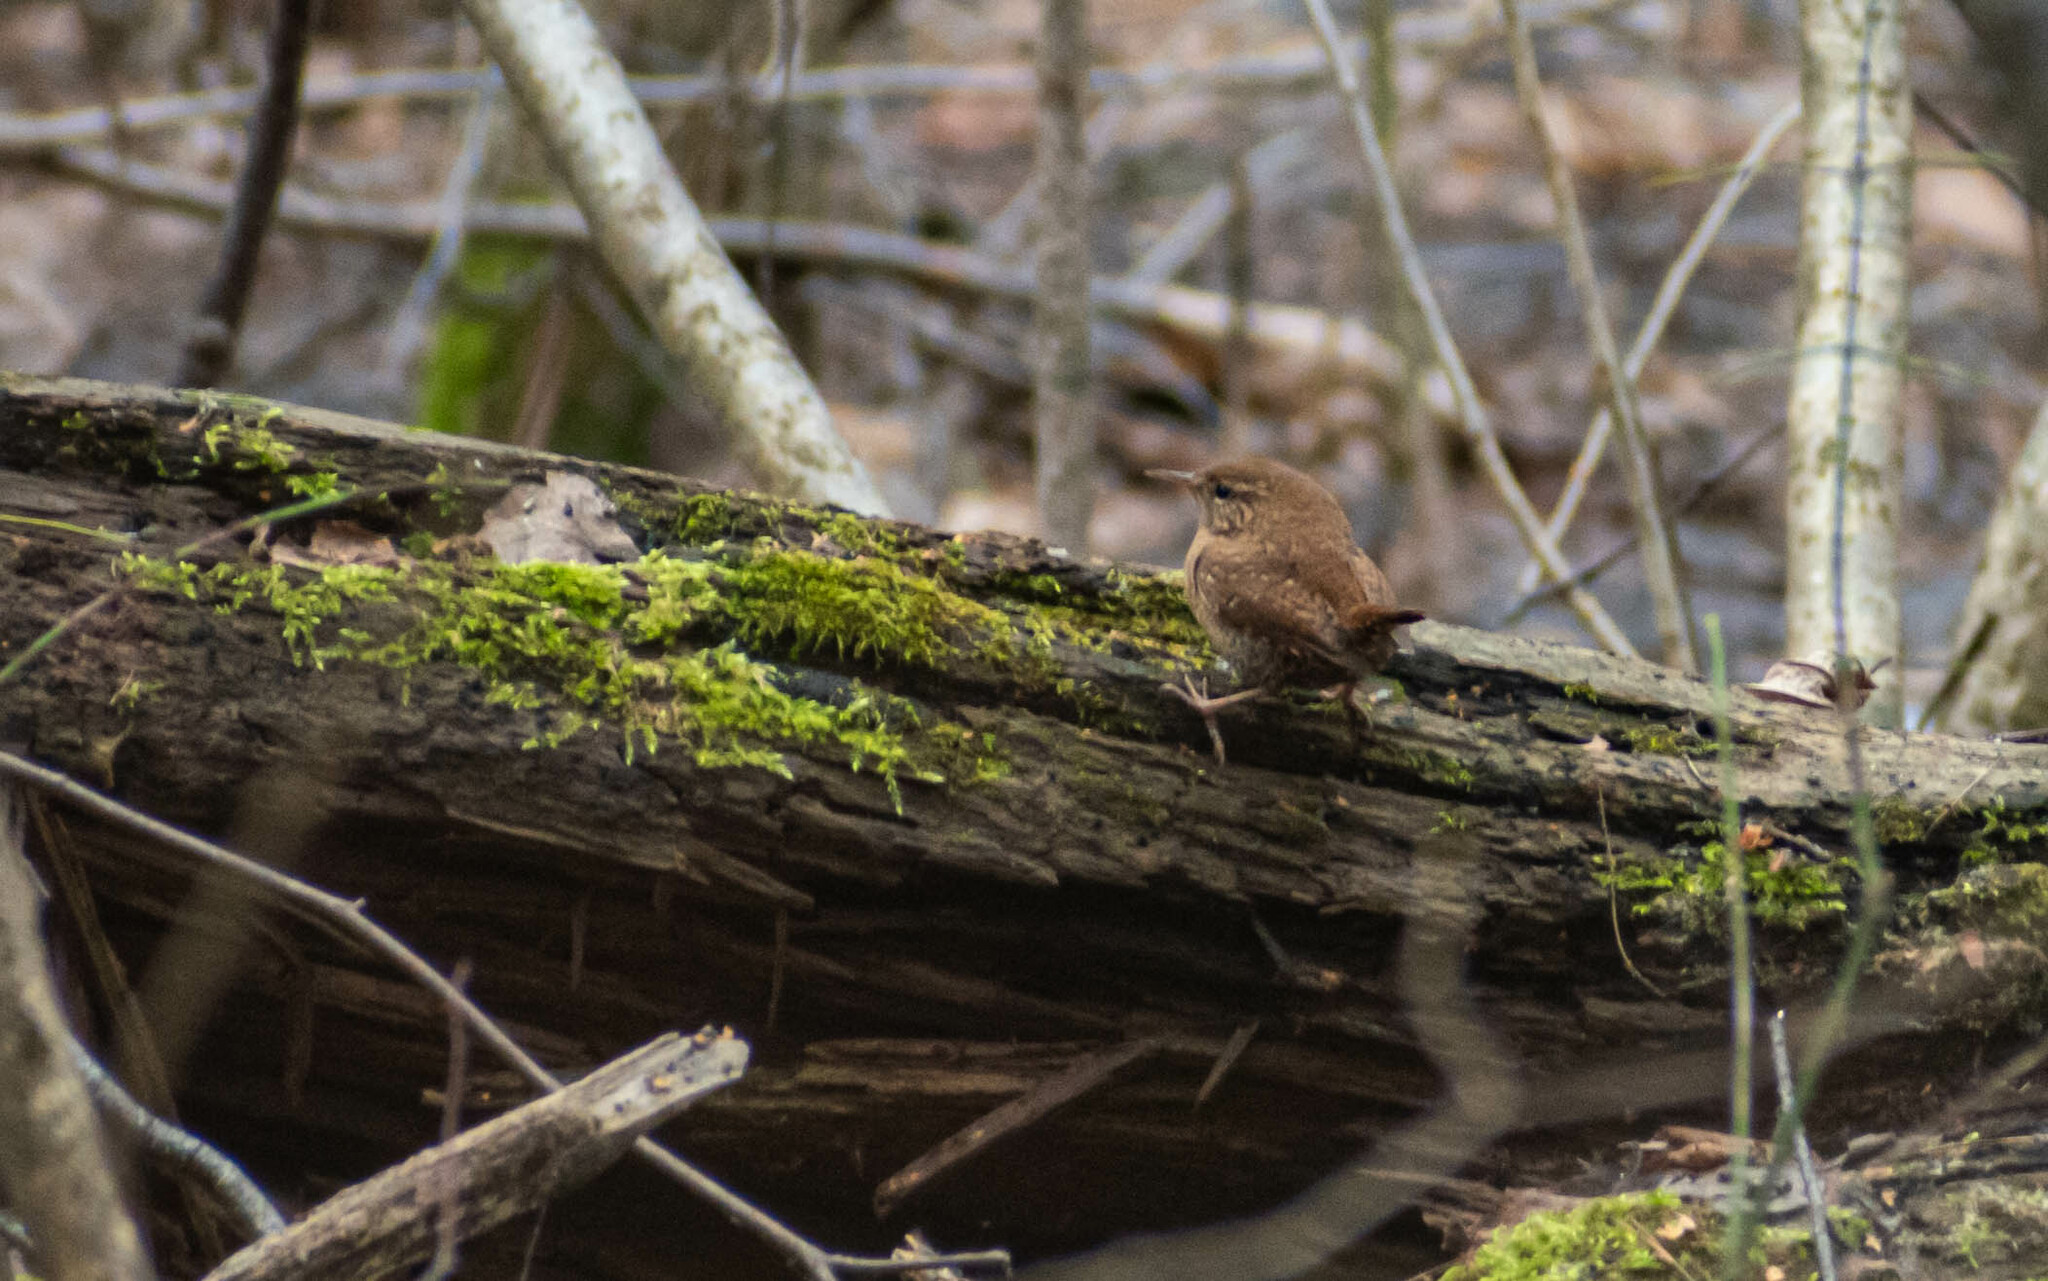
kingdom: Animalia
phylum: Chordata
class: Aves
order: Passeriformes
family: Troglodytidae
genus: Troglodytes
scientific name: Troglodytes troglodytes
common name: Eurasian wren
